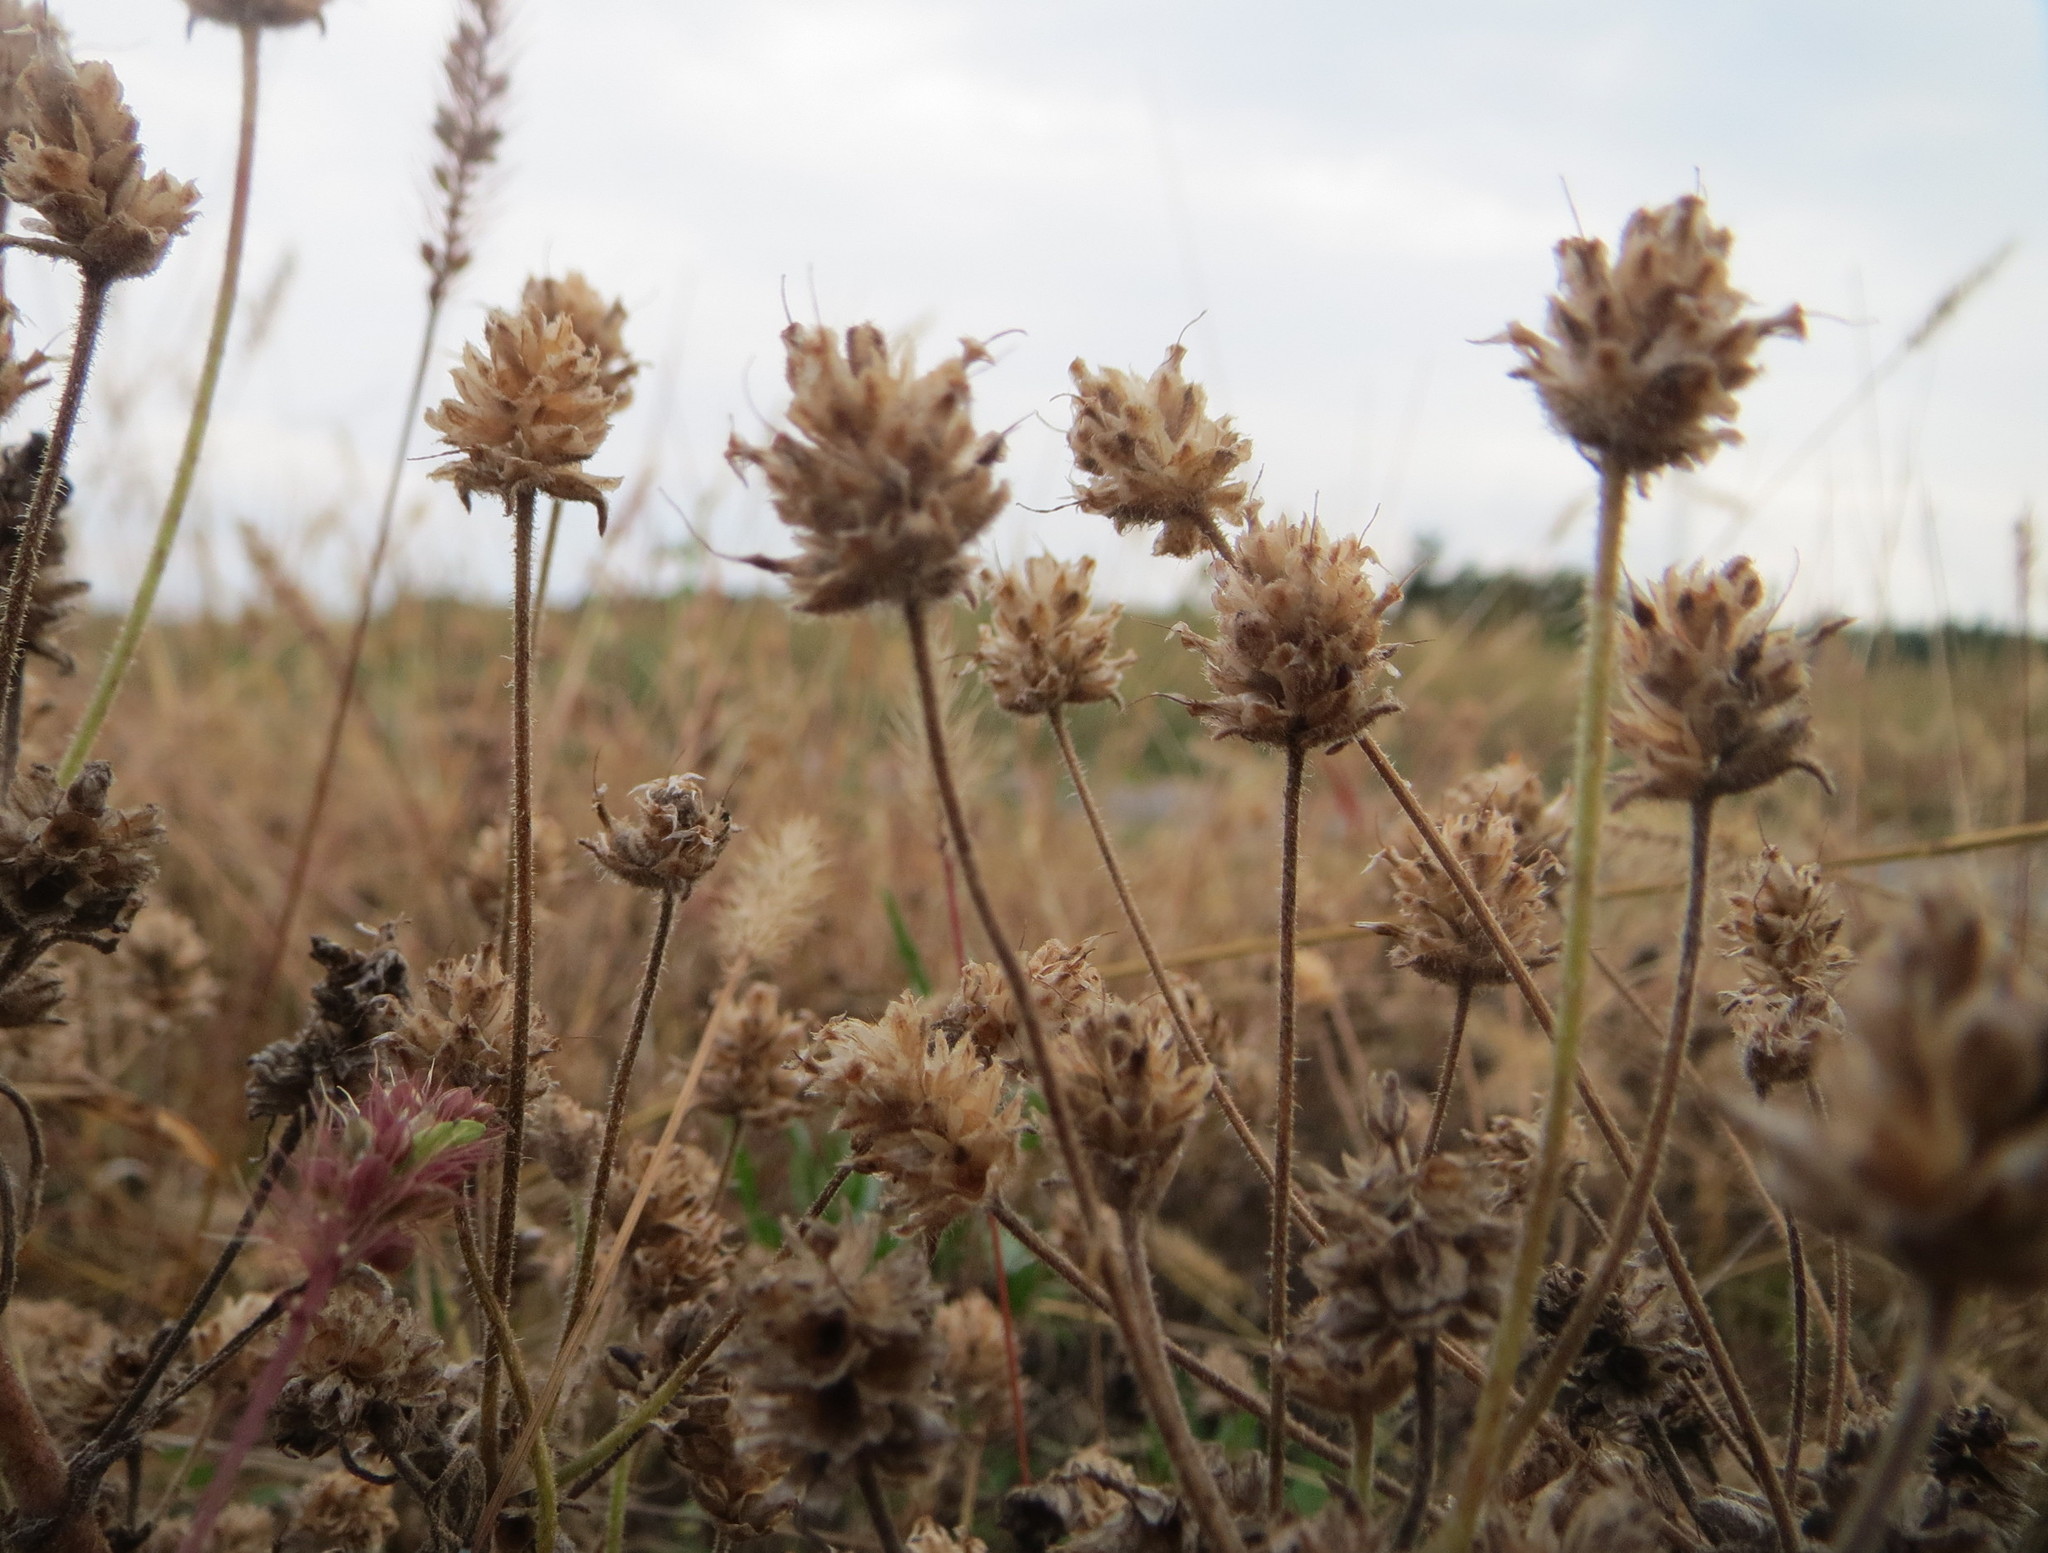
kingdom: Plantae
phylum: Tracheophyta
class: Magnoliopsida
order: Lamiales
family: Plantaginaceae
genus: Plantago
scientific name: Plantago arenaria
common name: Branched plantain
